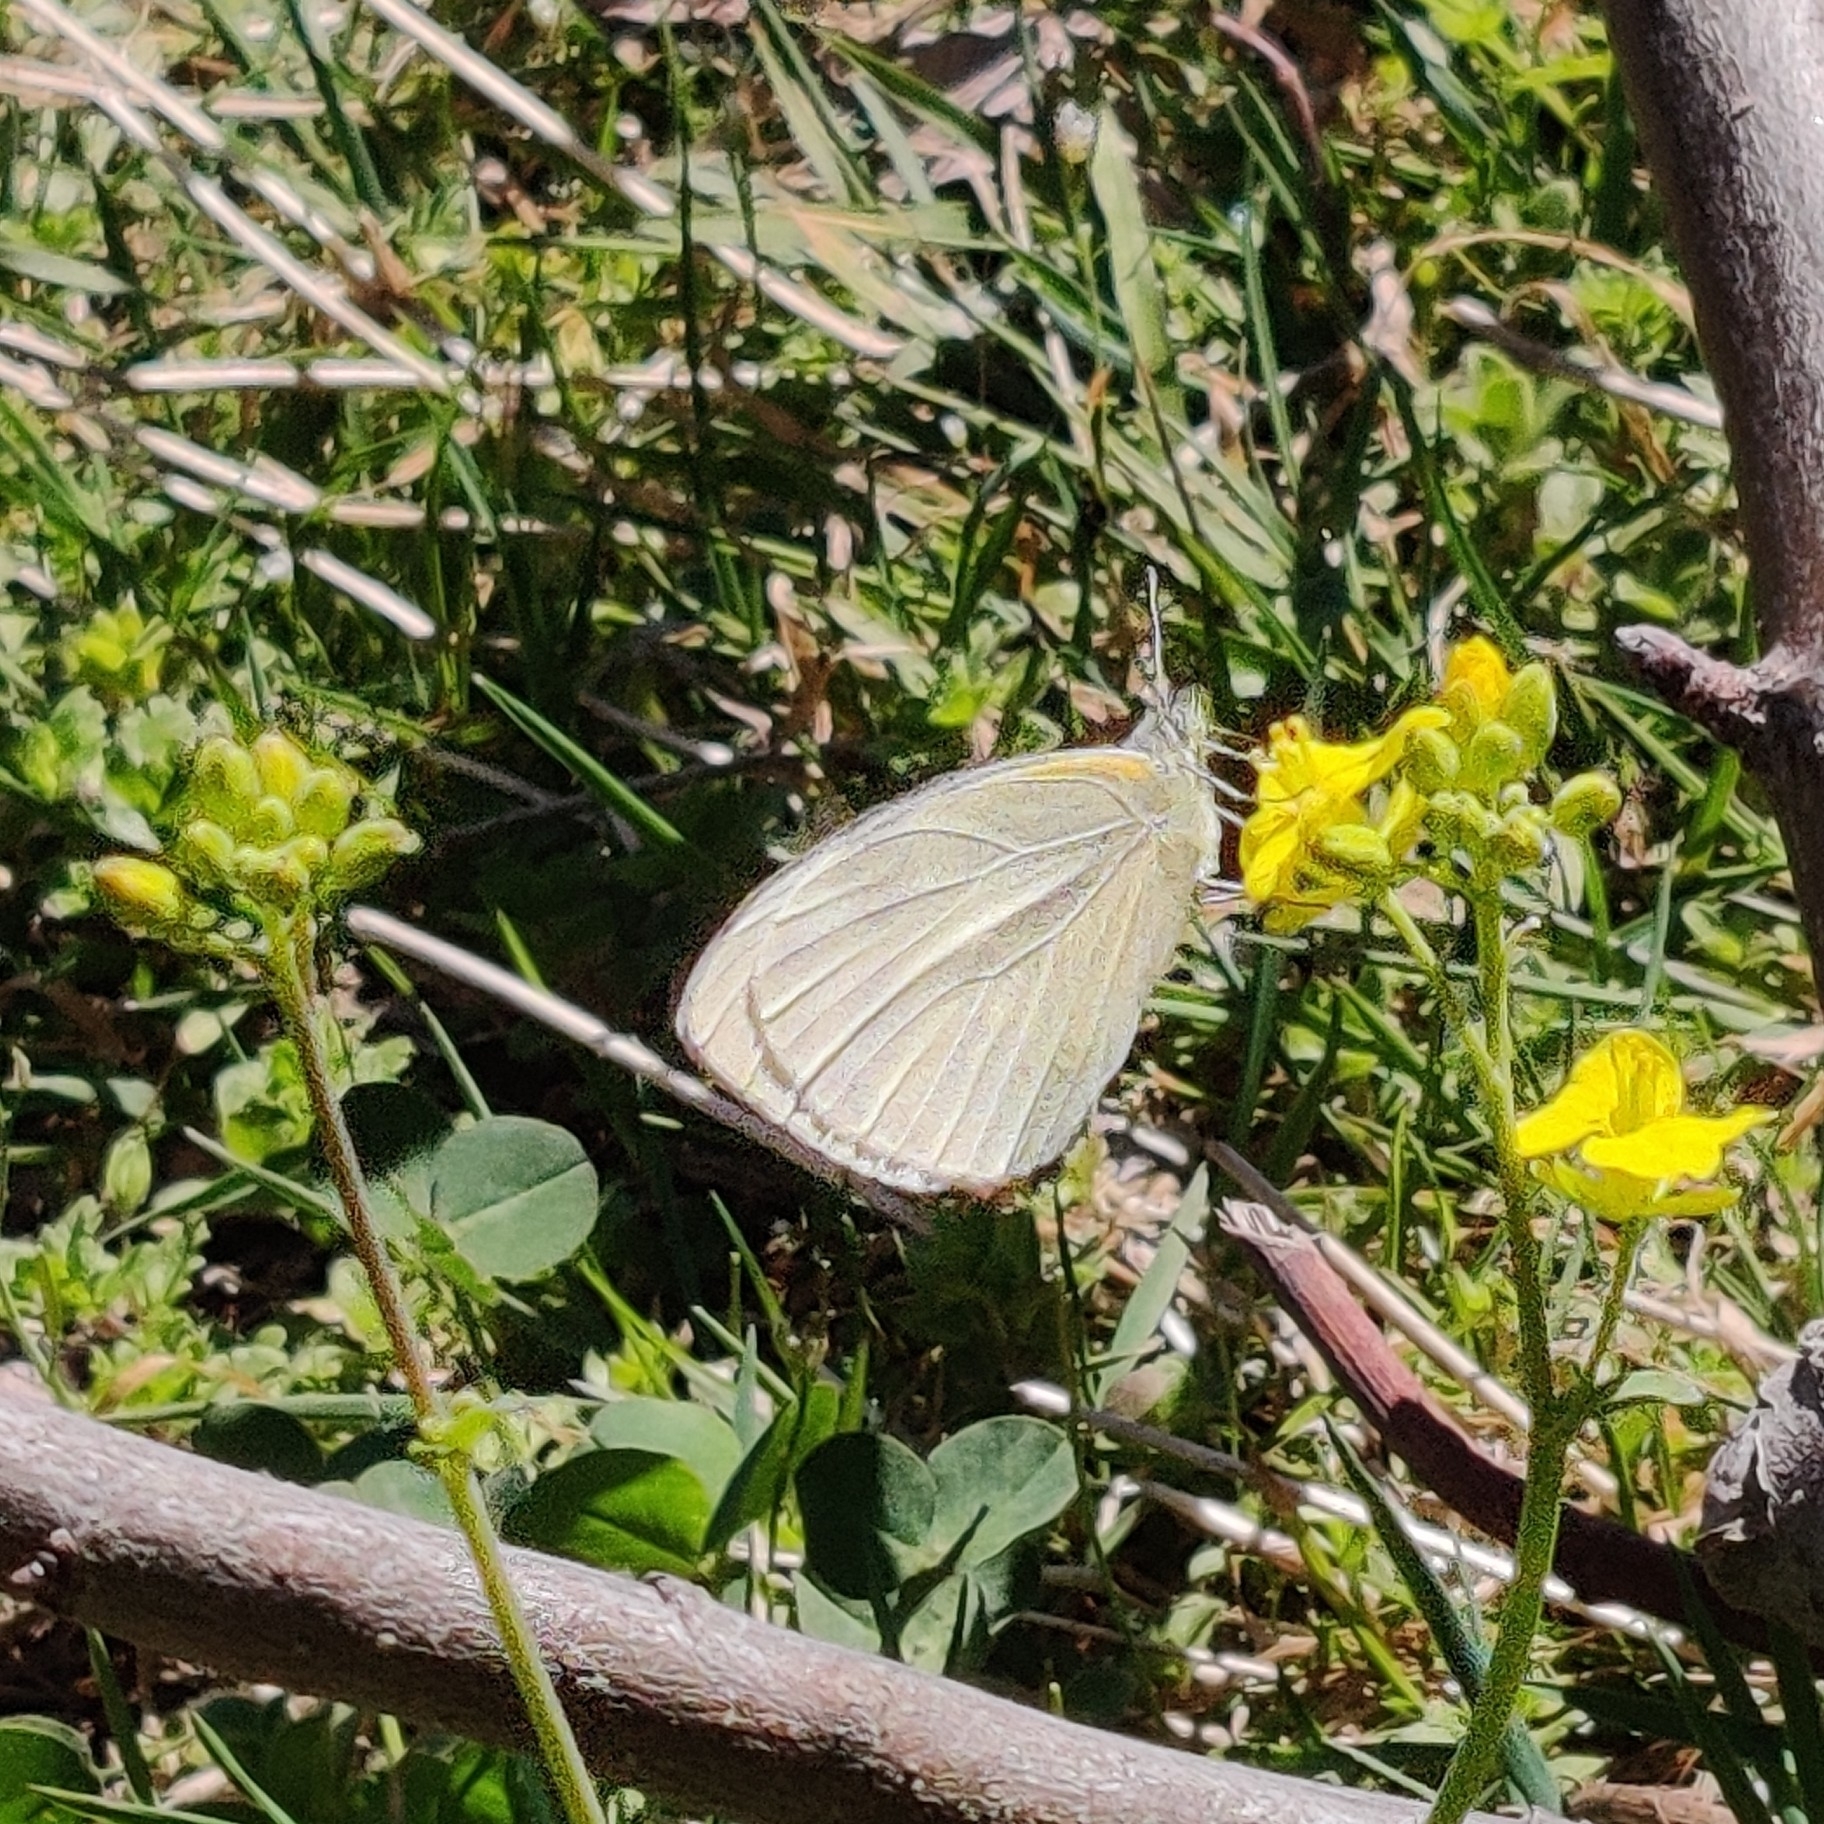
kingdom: Animalia
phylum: Arthropoda
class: Insecta
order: Lepidoptera
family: Pieridae
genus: Pieris
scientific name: Pieris canidia
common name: Indian cabbage white
